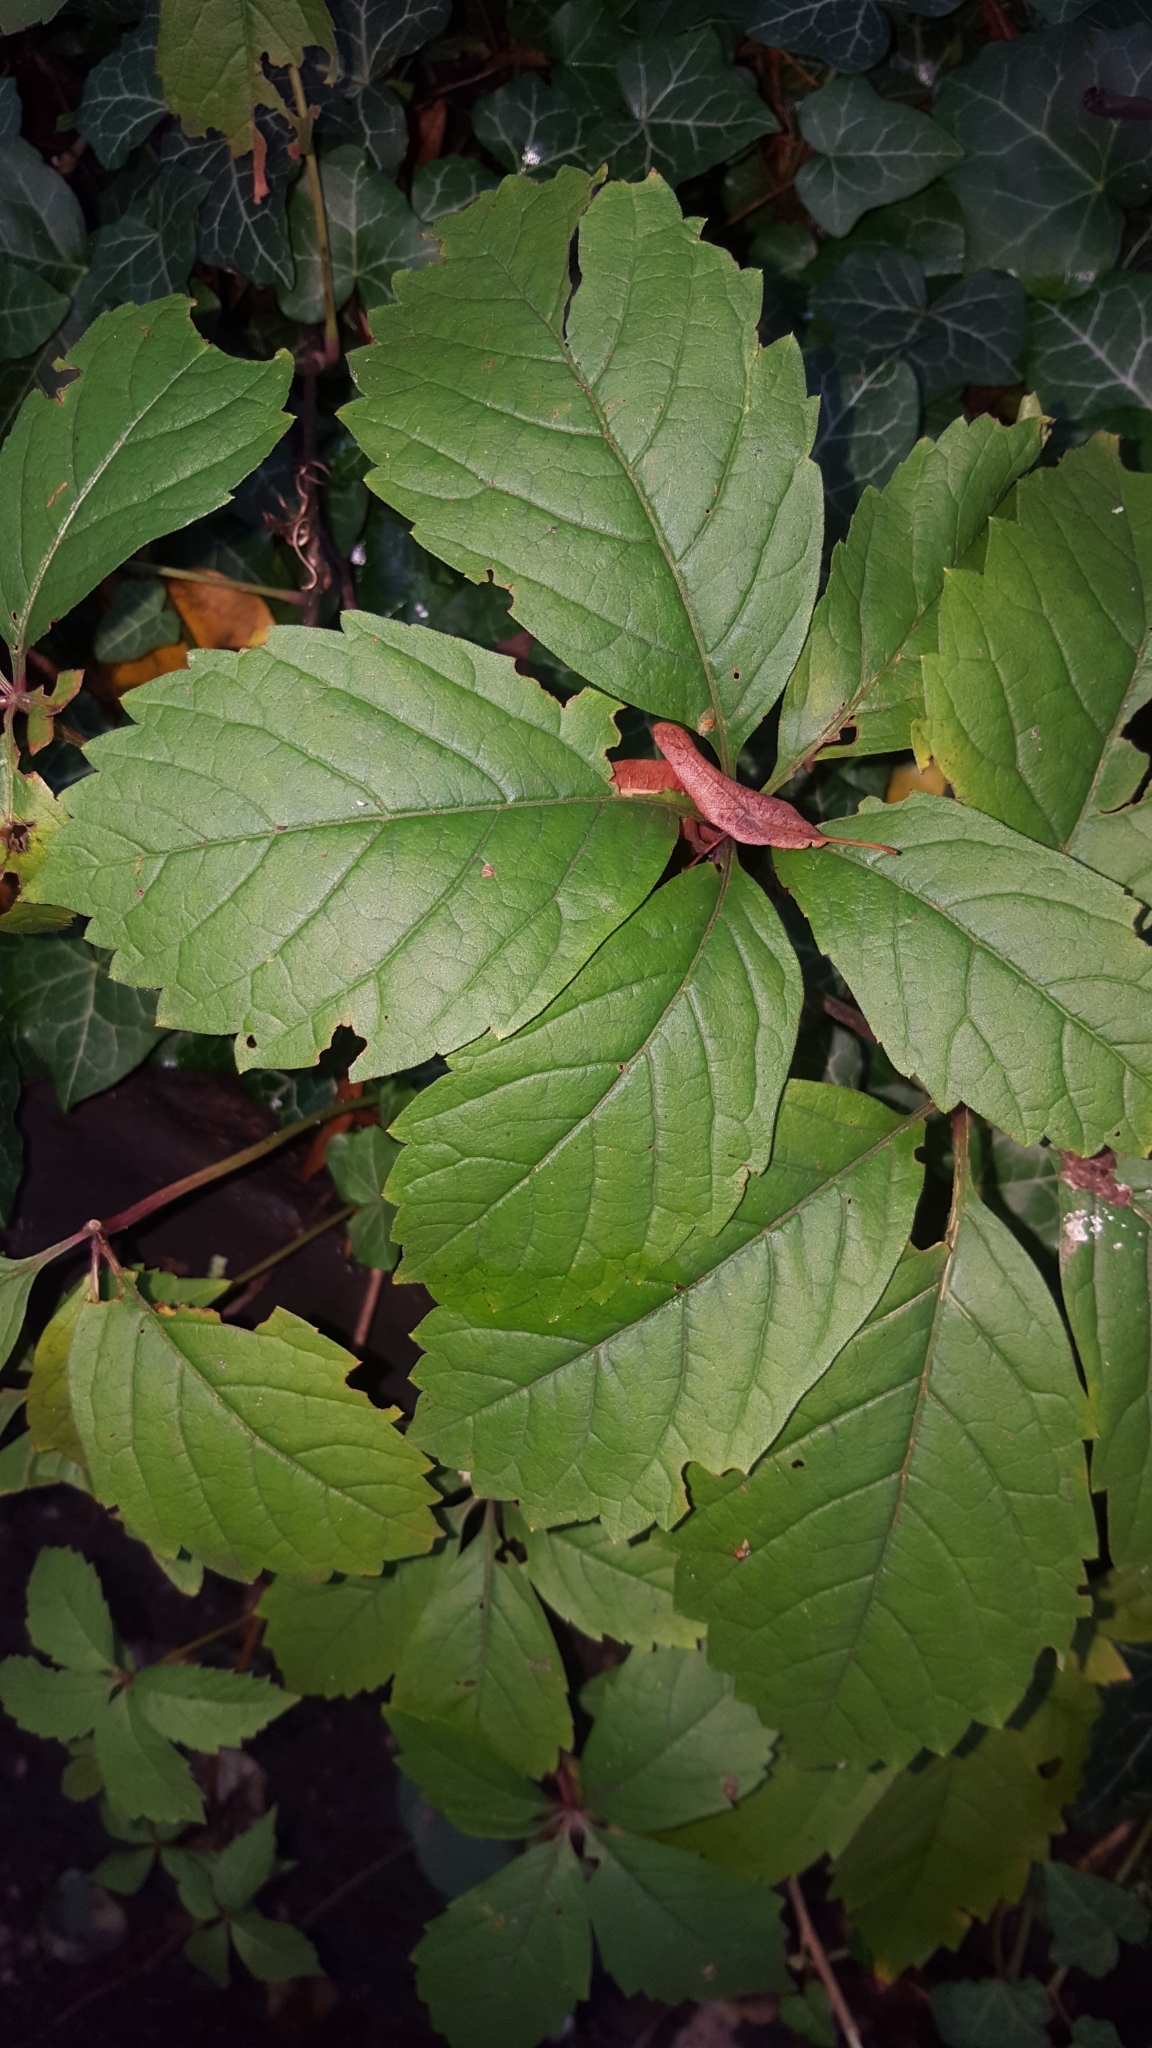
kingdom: Plantae
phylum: Tracheophyta
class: Magnoliopsida
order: Vitales
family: Vitaceae
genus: Parthenocissus
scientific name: Parthenocissus quinquefolia
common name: Virginia-creeper
